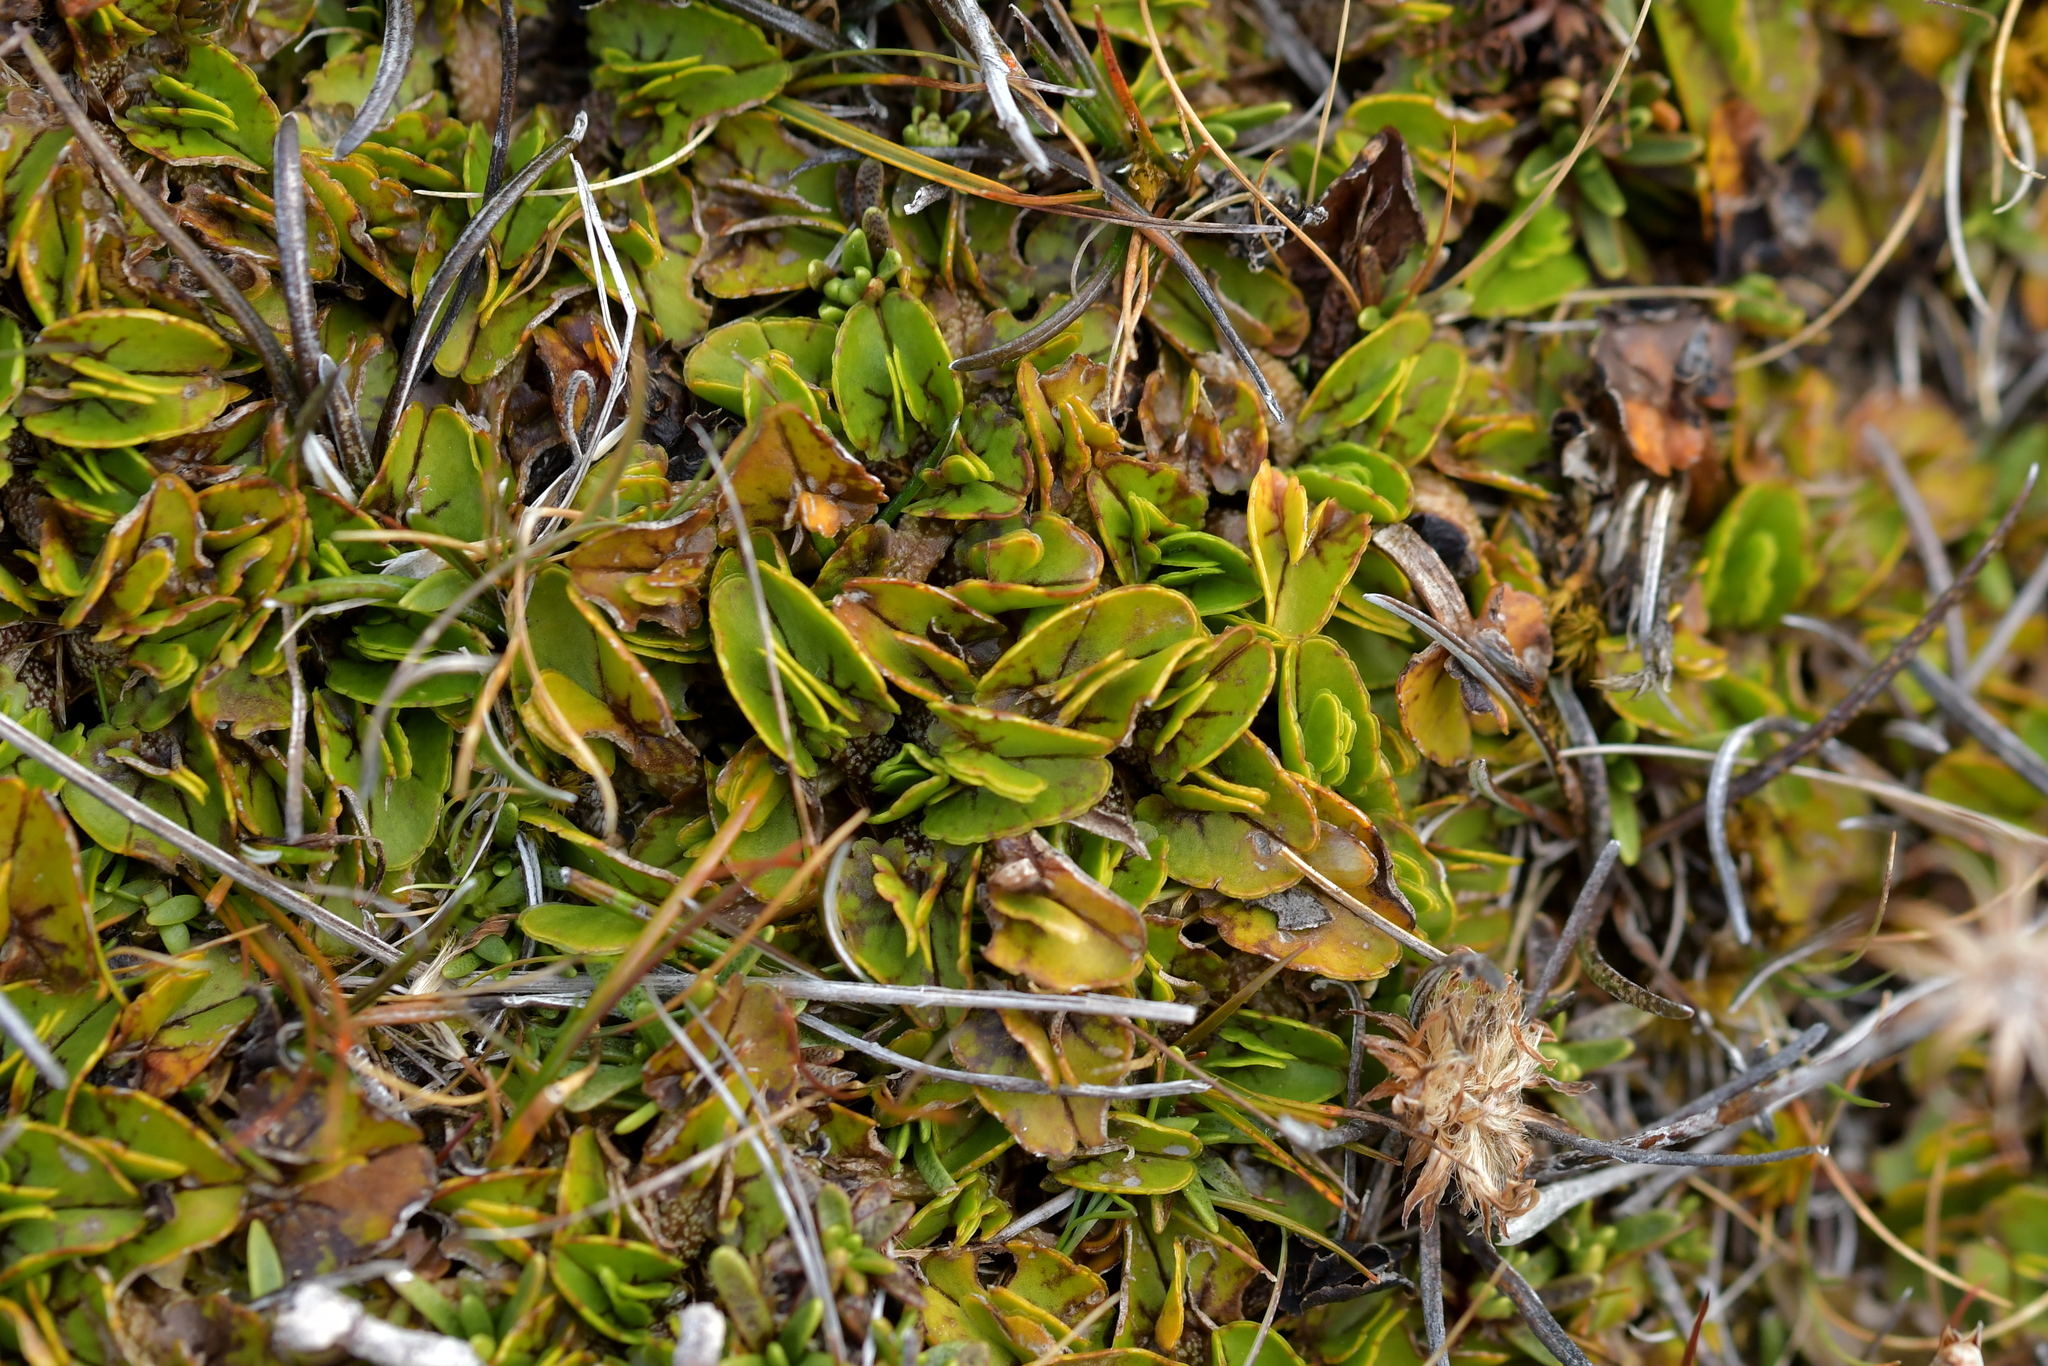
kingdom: Plantae
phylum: Tracheophyta
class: Magnoliopsida
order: Ranunculales
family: Ranunculaceae
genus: Caltha
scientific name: Caltha obtusa
